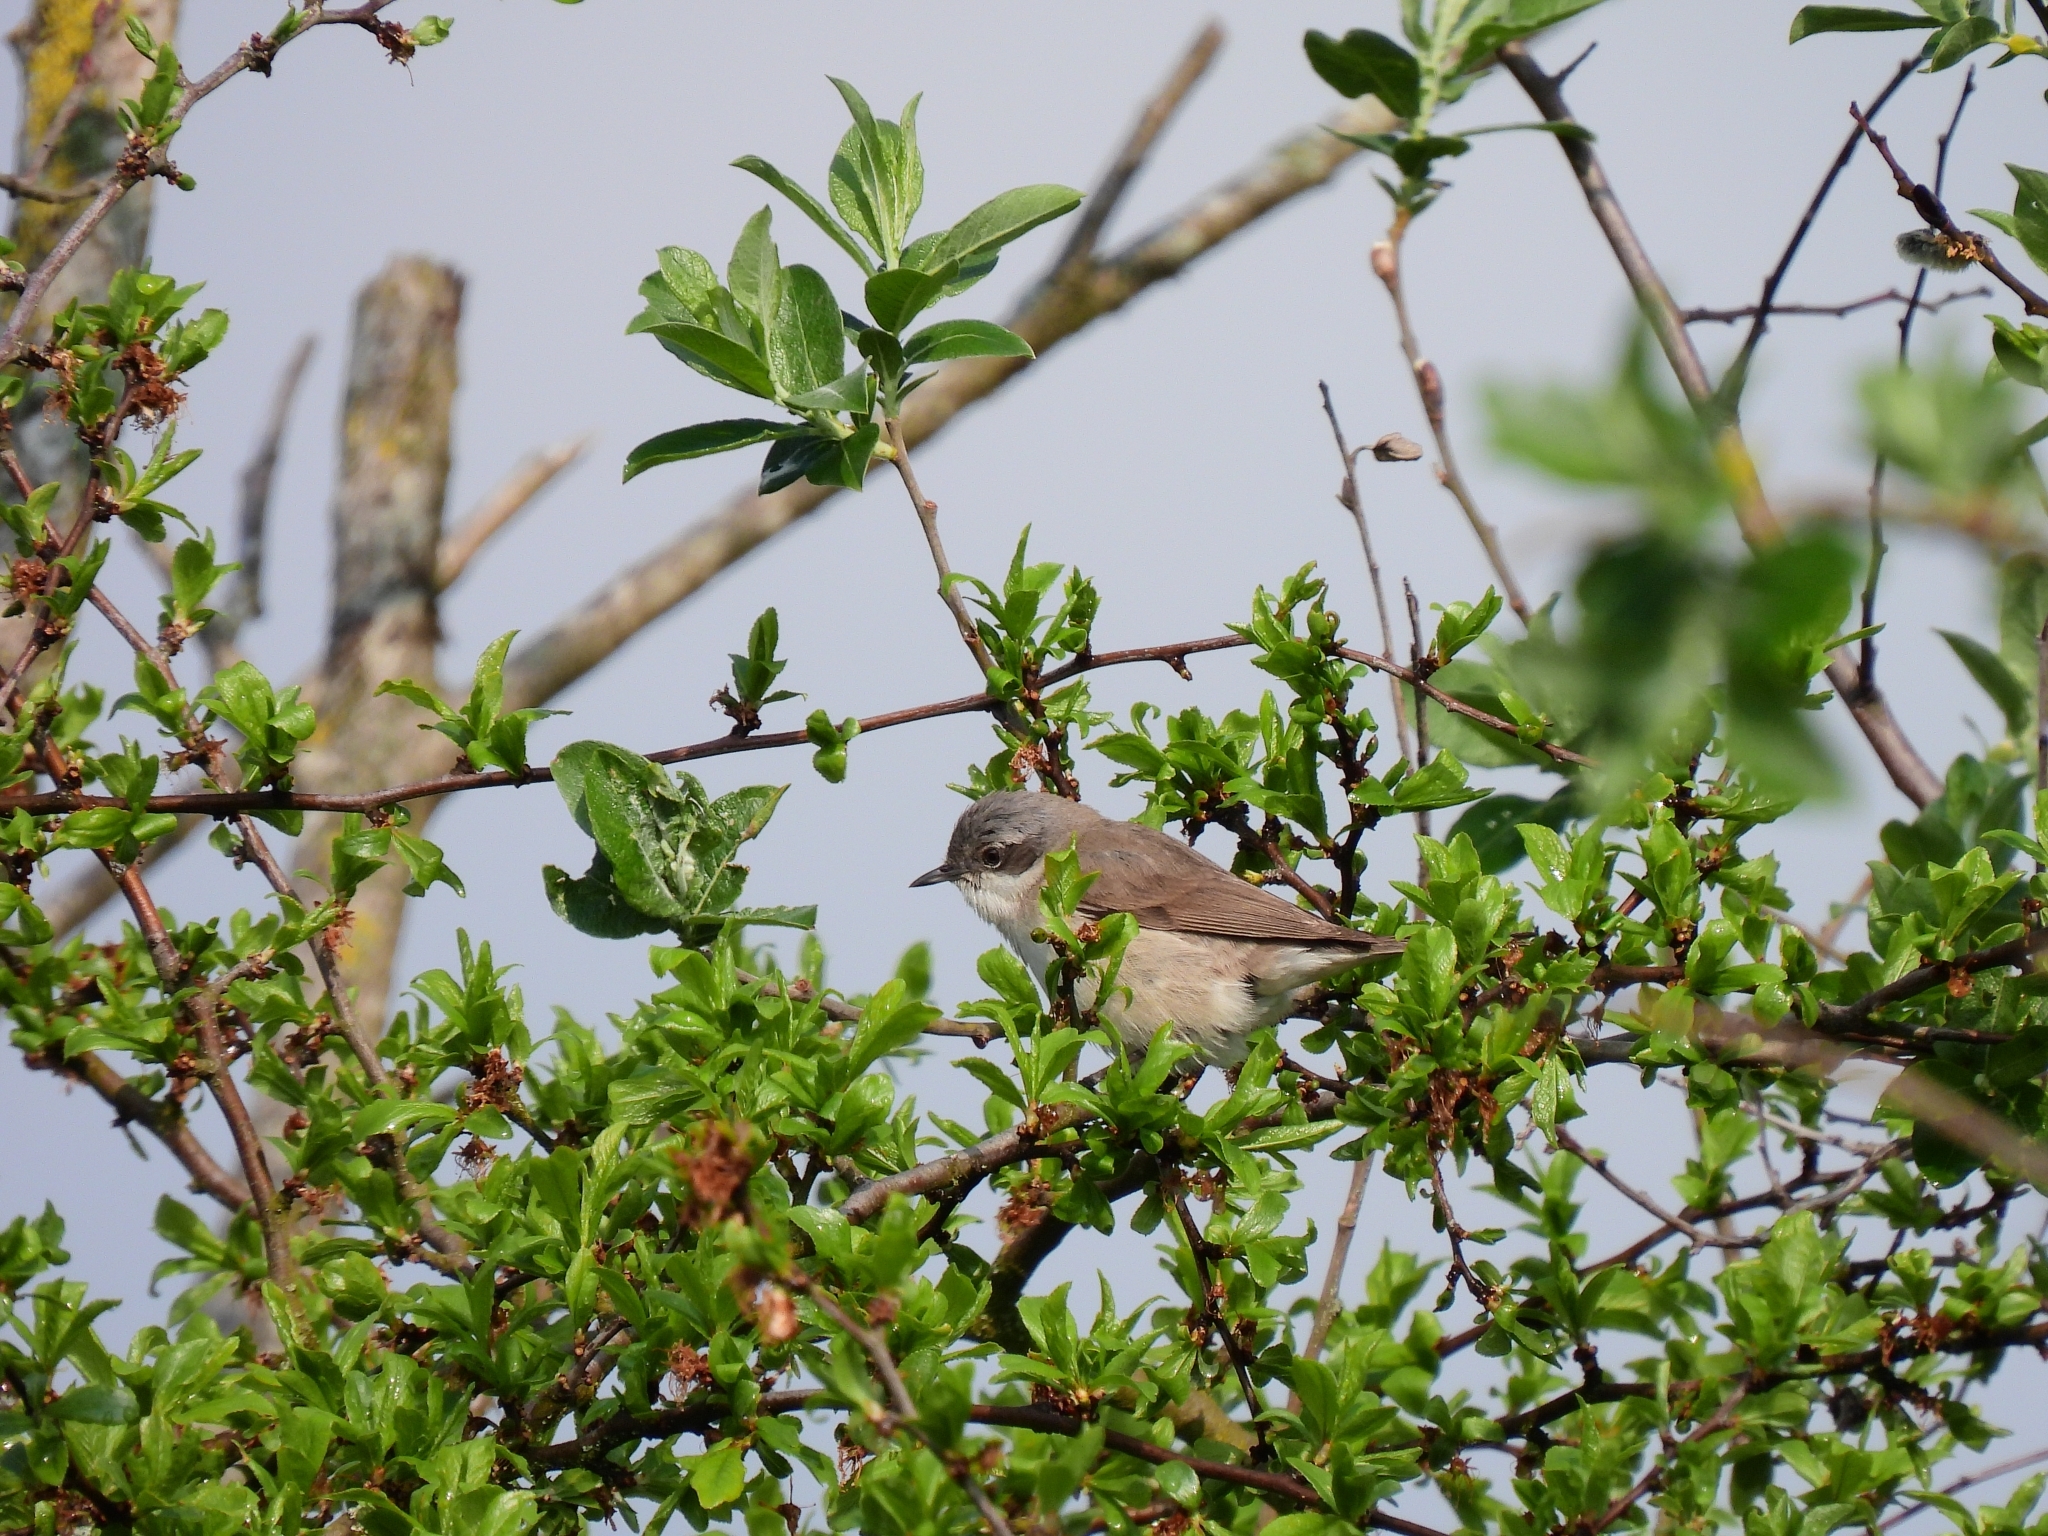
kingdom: Animalia
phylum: Chordata
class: Aves
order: Passeriformes
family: Sylviidae
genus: Sylvia
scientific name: Sylvia curruca
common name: Lesser whitethroat
